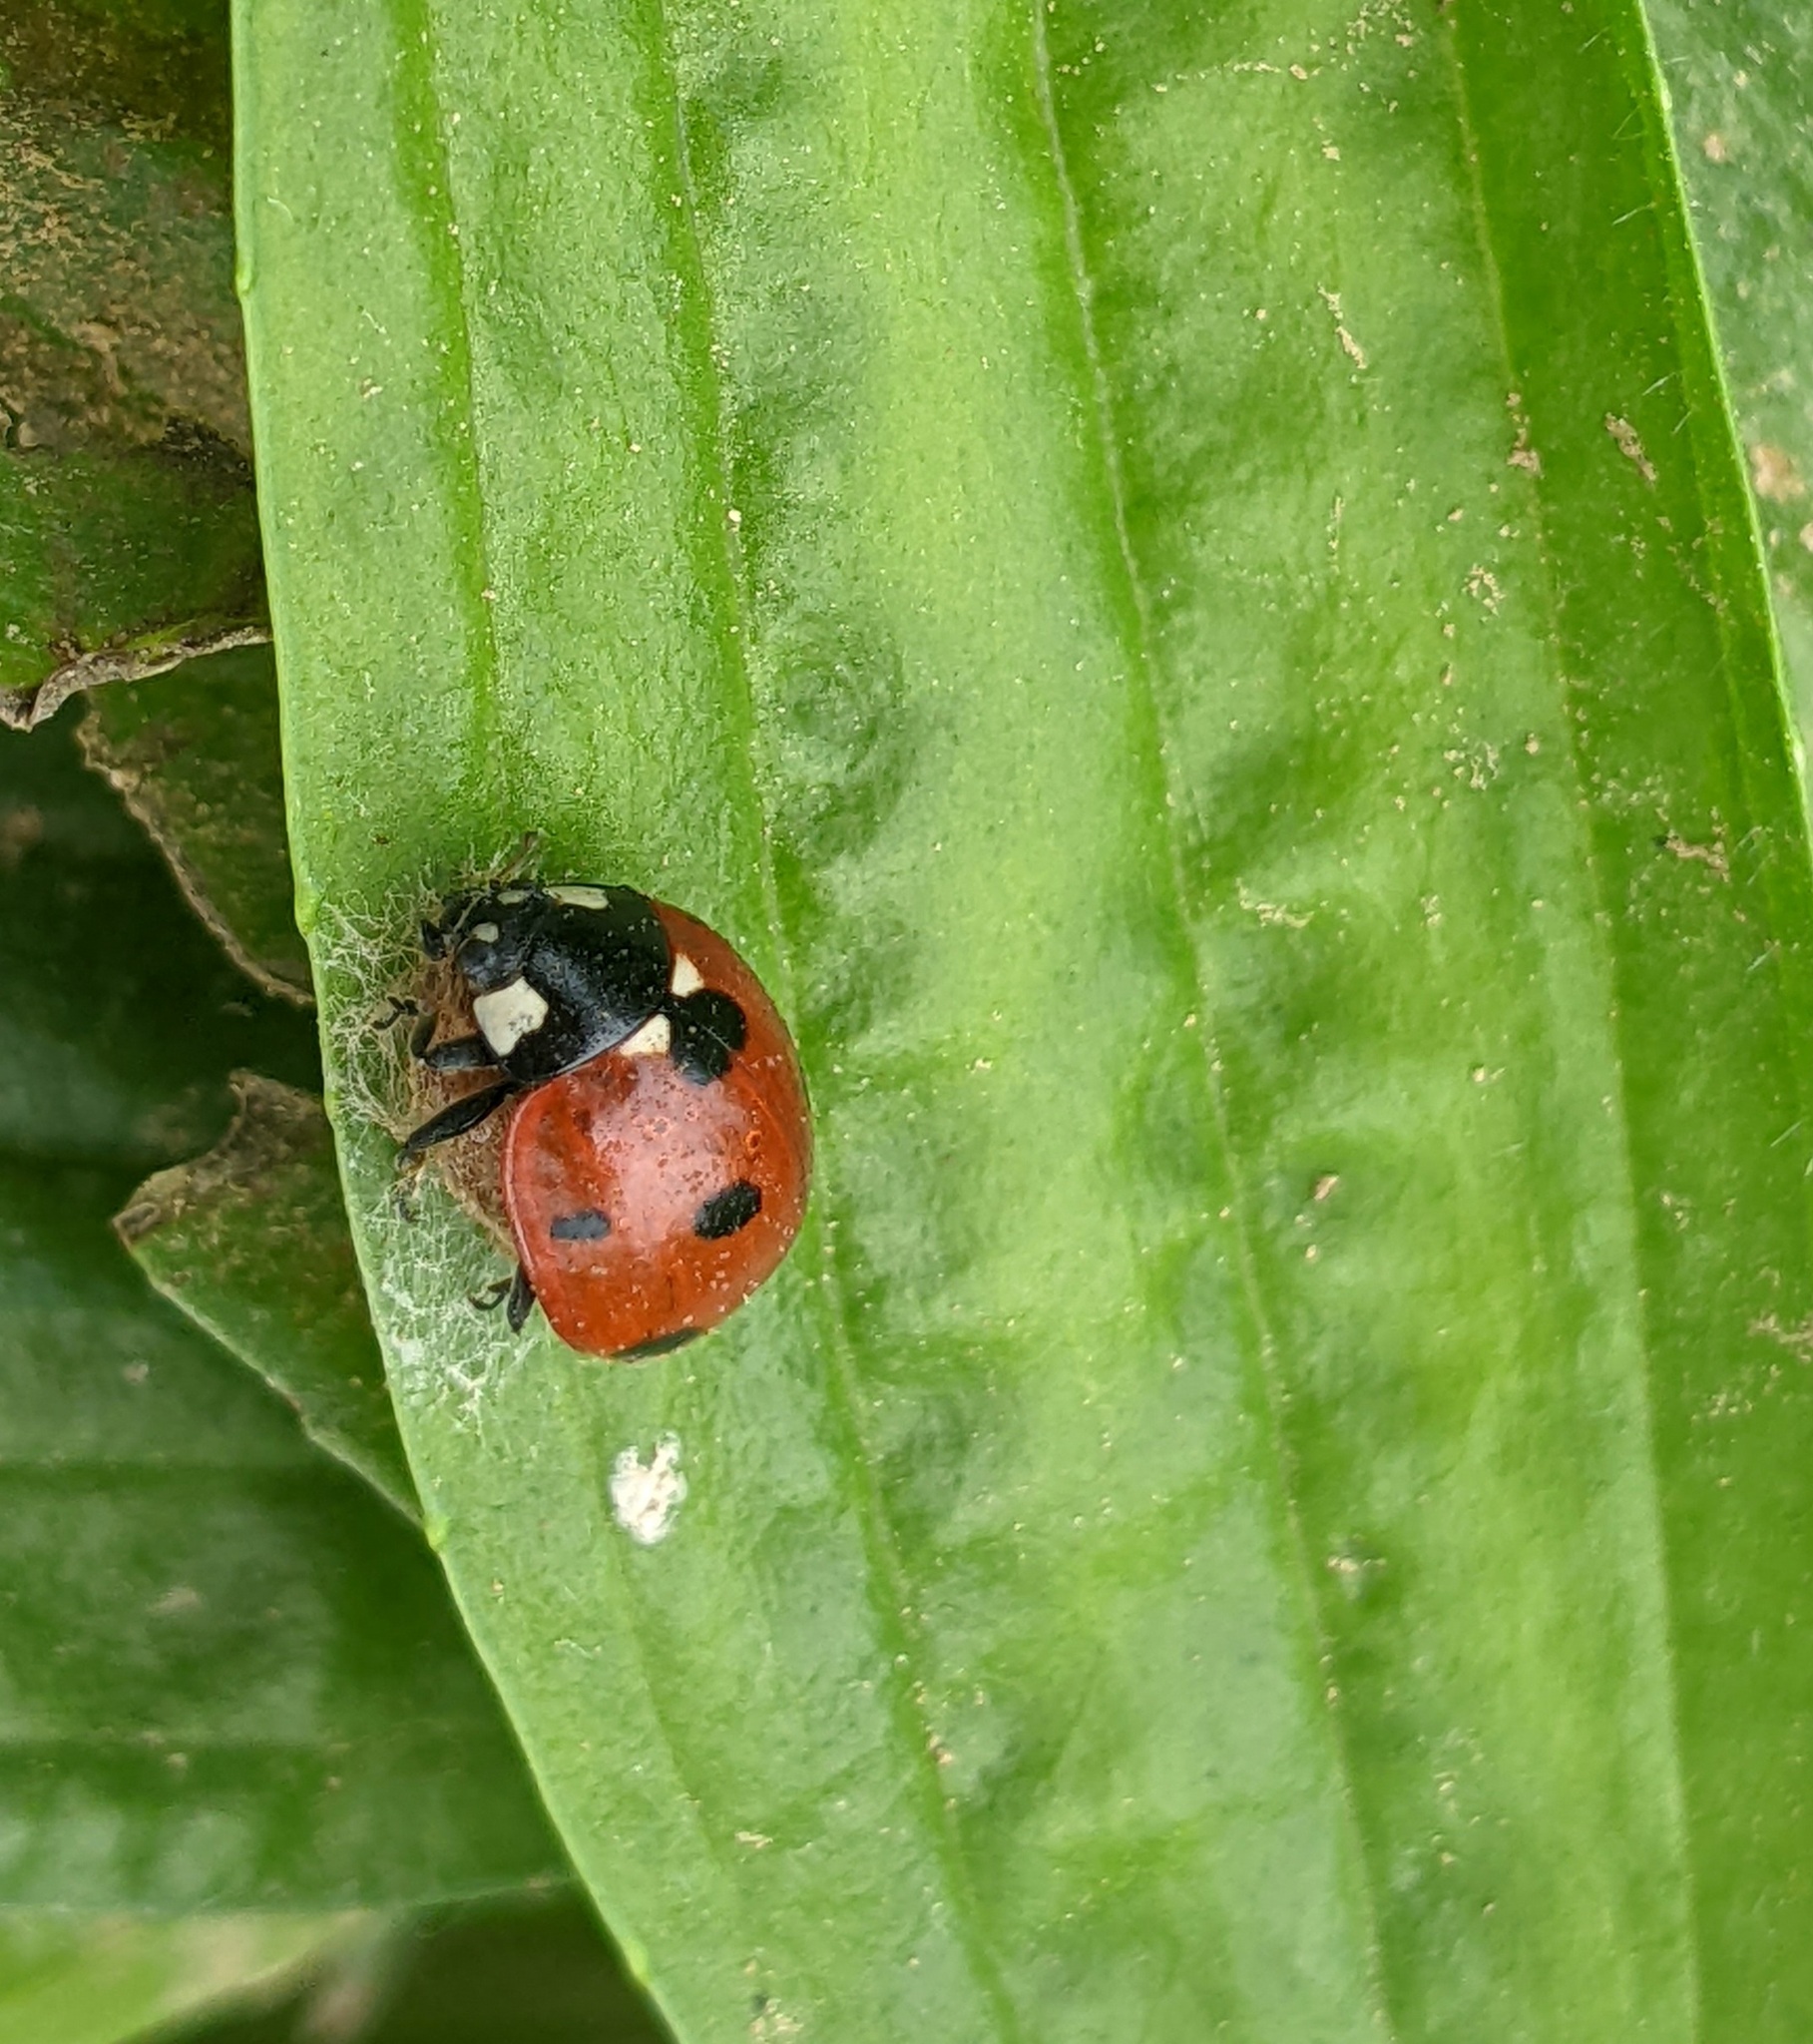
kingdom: Animalia
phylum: Arthropoda
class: Insecta
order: Coleoptera
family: Coccinellidae
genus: Coccinella
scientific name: Coccinella septempunctata
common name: Sevenspotted lady beetle
